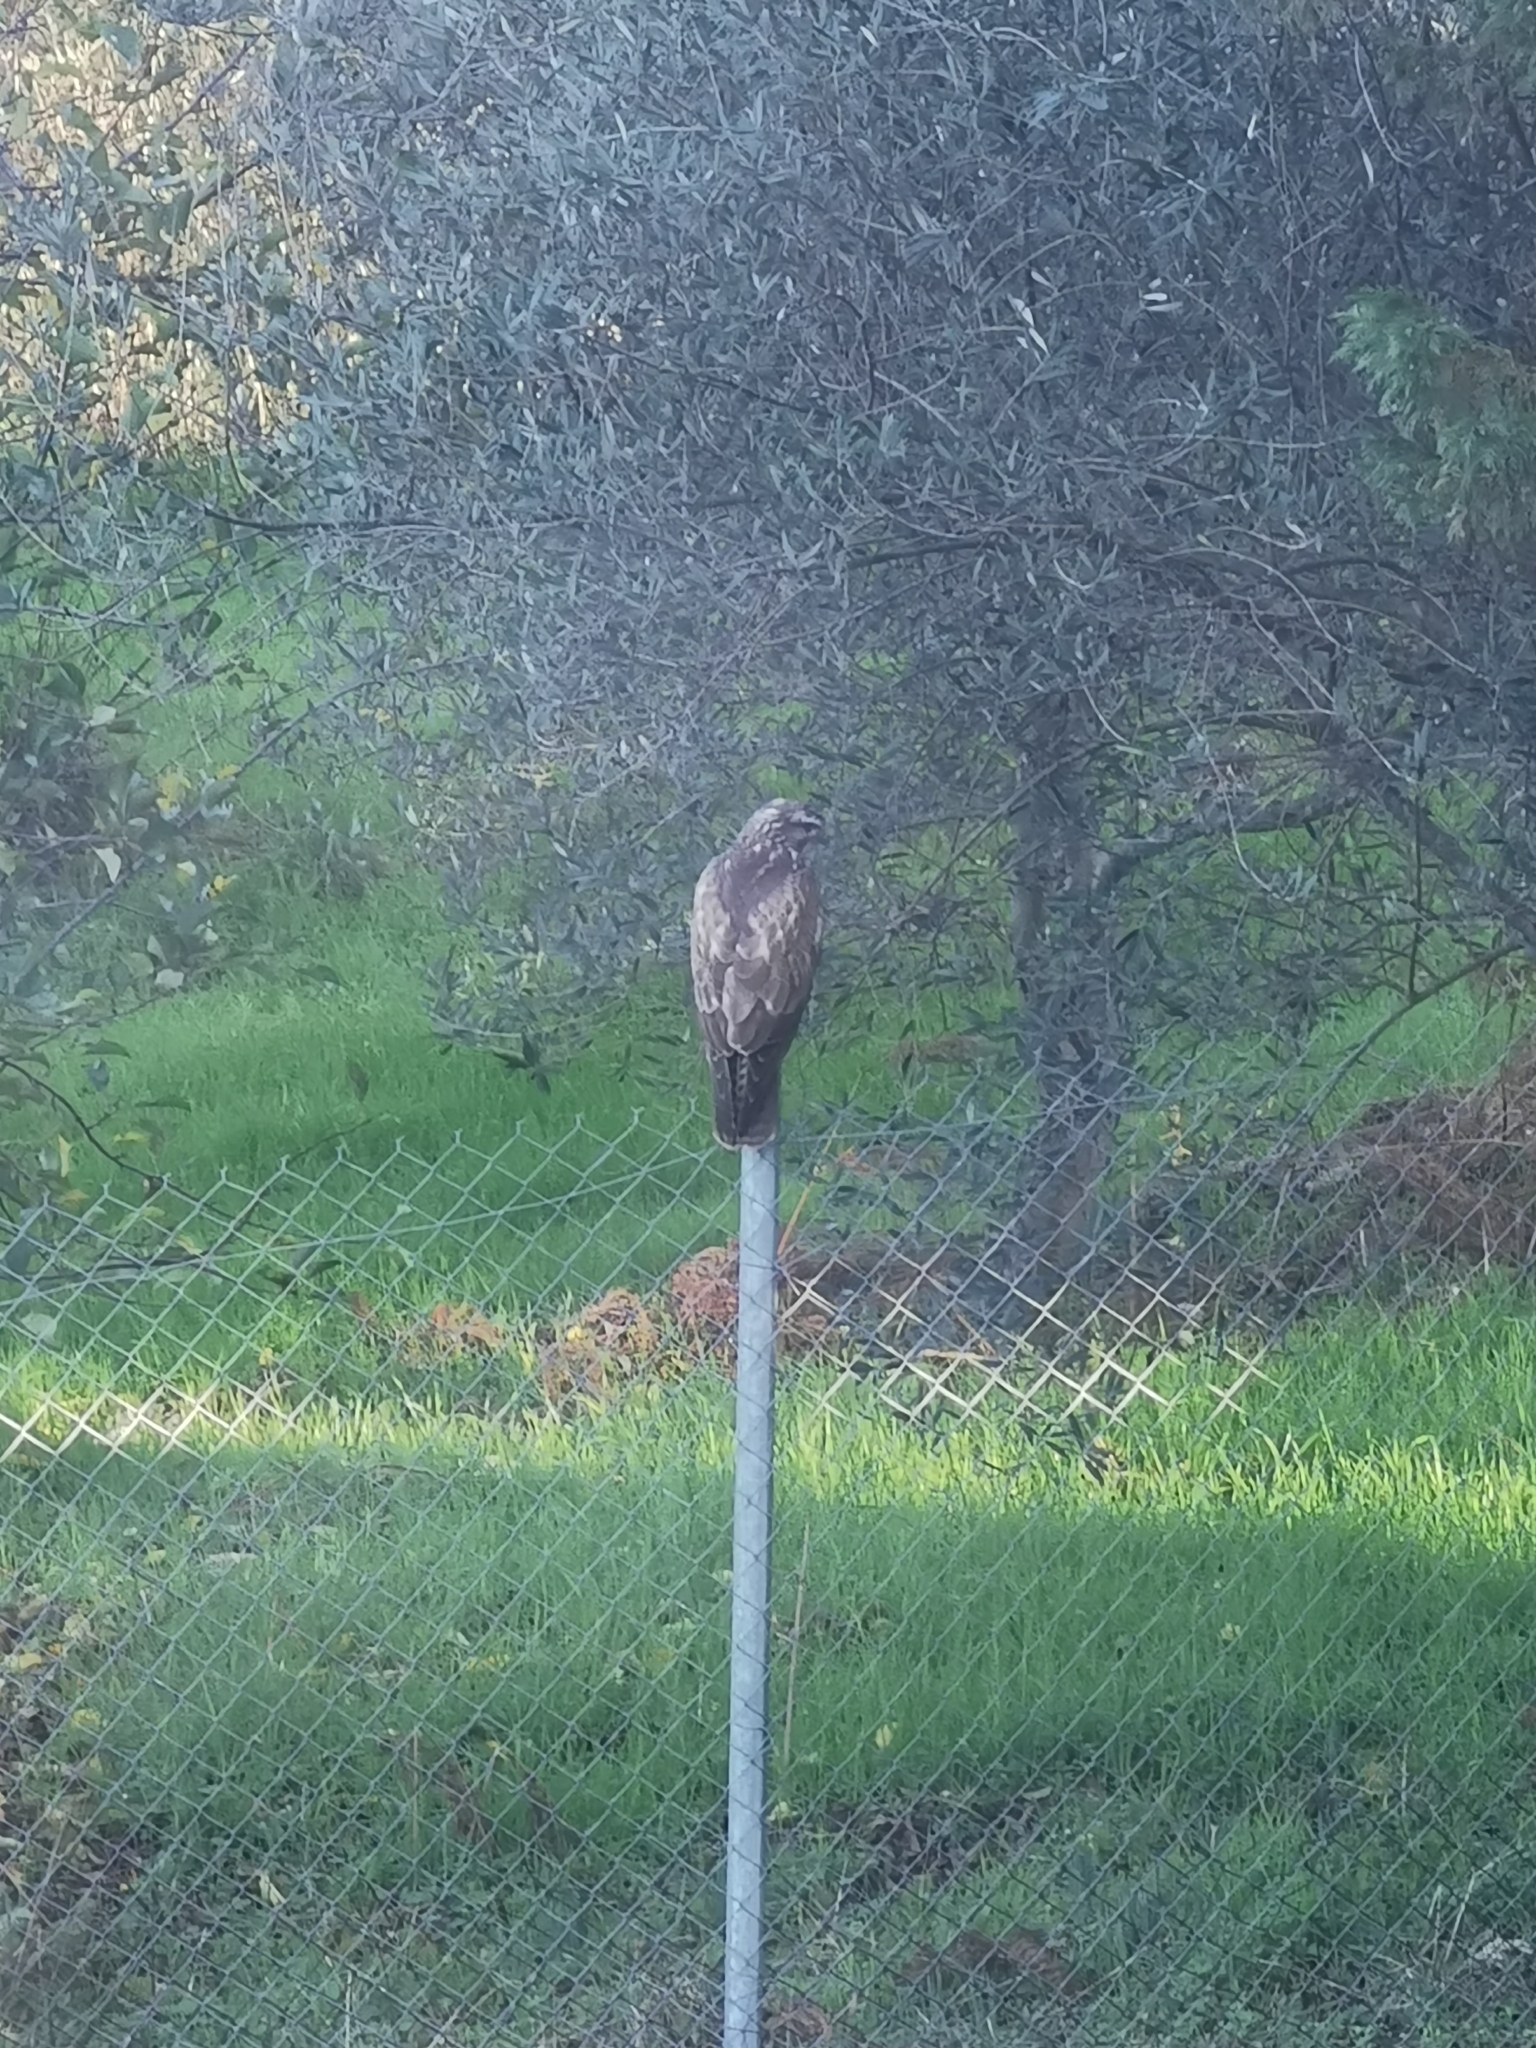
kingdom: Animalia
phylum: Chordata
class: Aves
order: Accipitriformes
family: Accipitridae
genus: Buteo
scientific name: Buteo buteo
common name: Common buzzard
